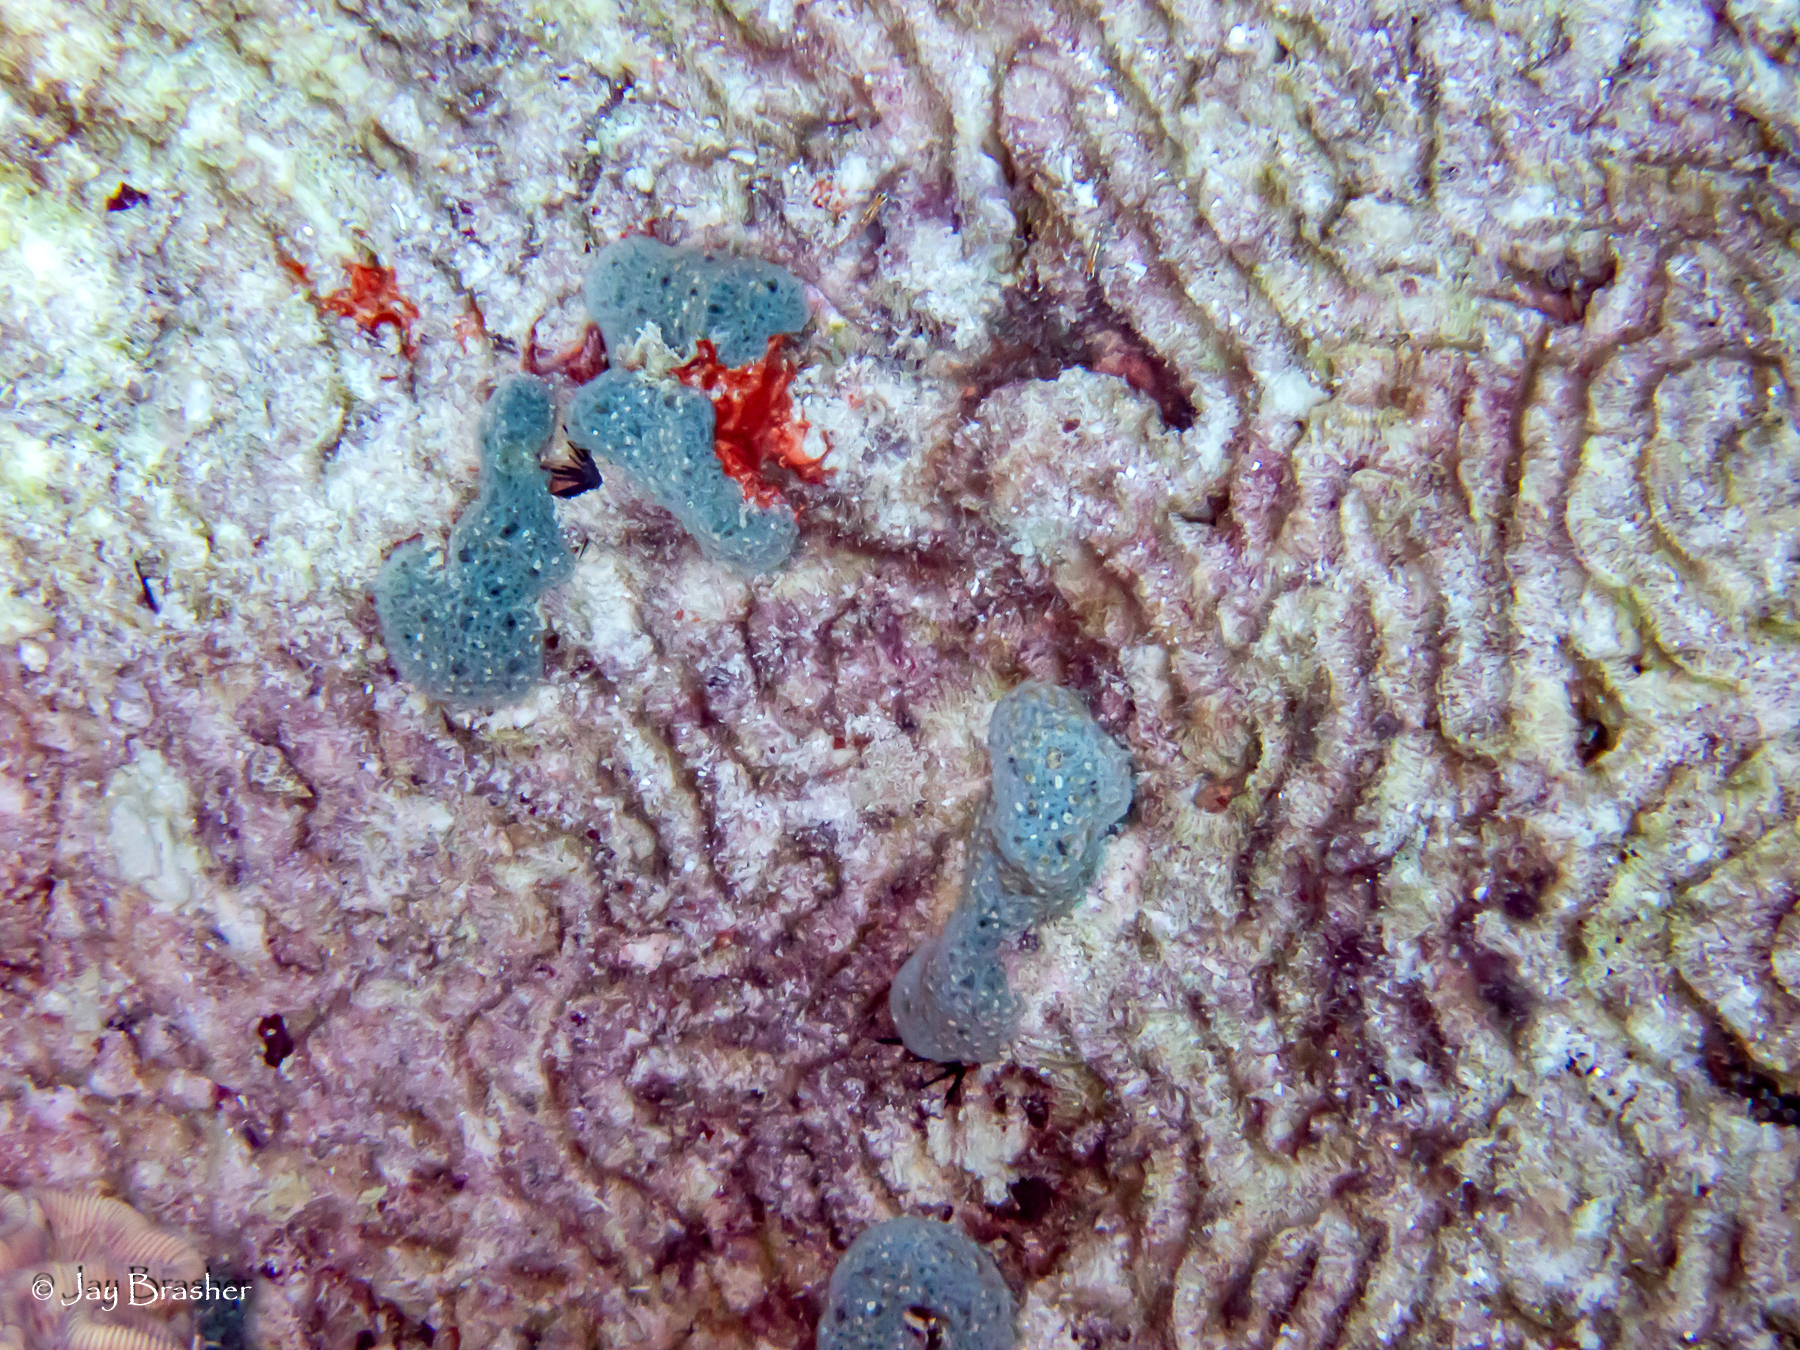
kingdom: Animalia
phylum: Porifera
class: Demospongiae
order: Haplosclerida
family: Niphatidae
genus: Niphates
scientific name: Niphates erecta
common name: Lavender rope sponge
